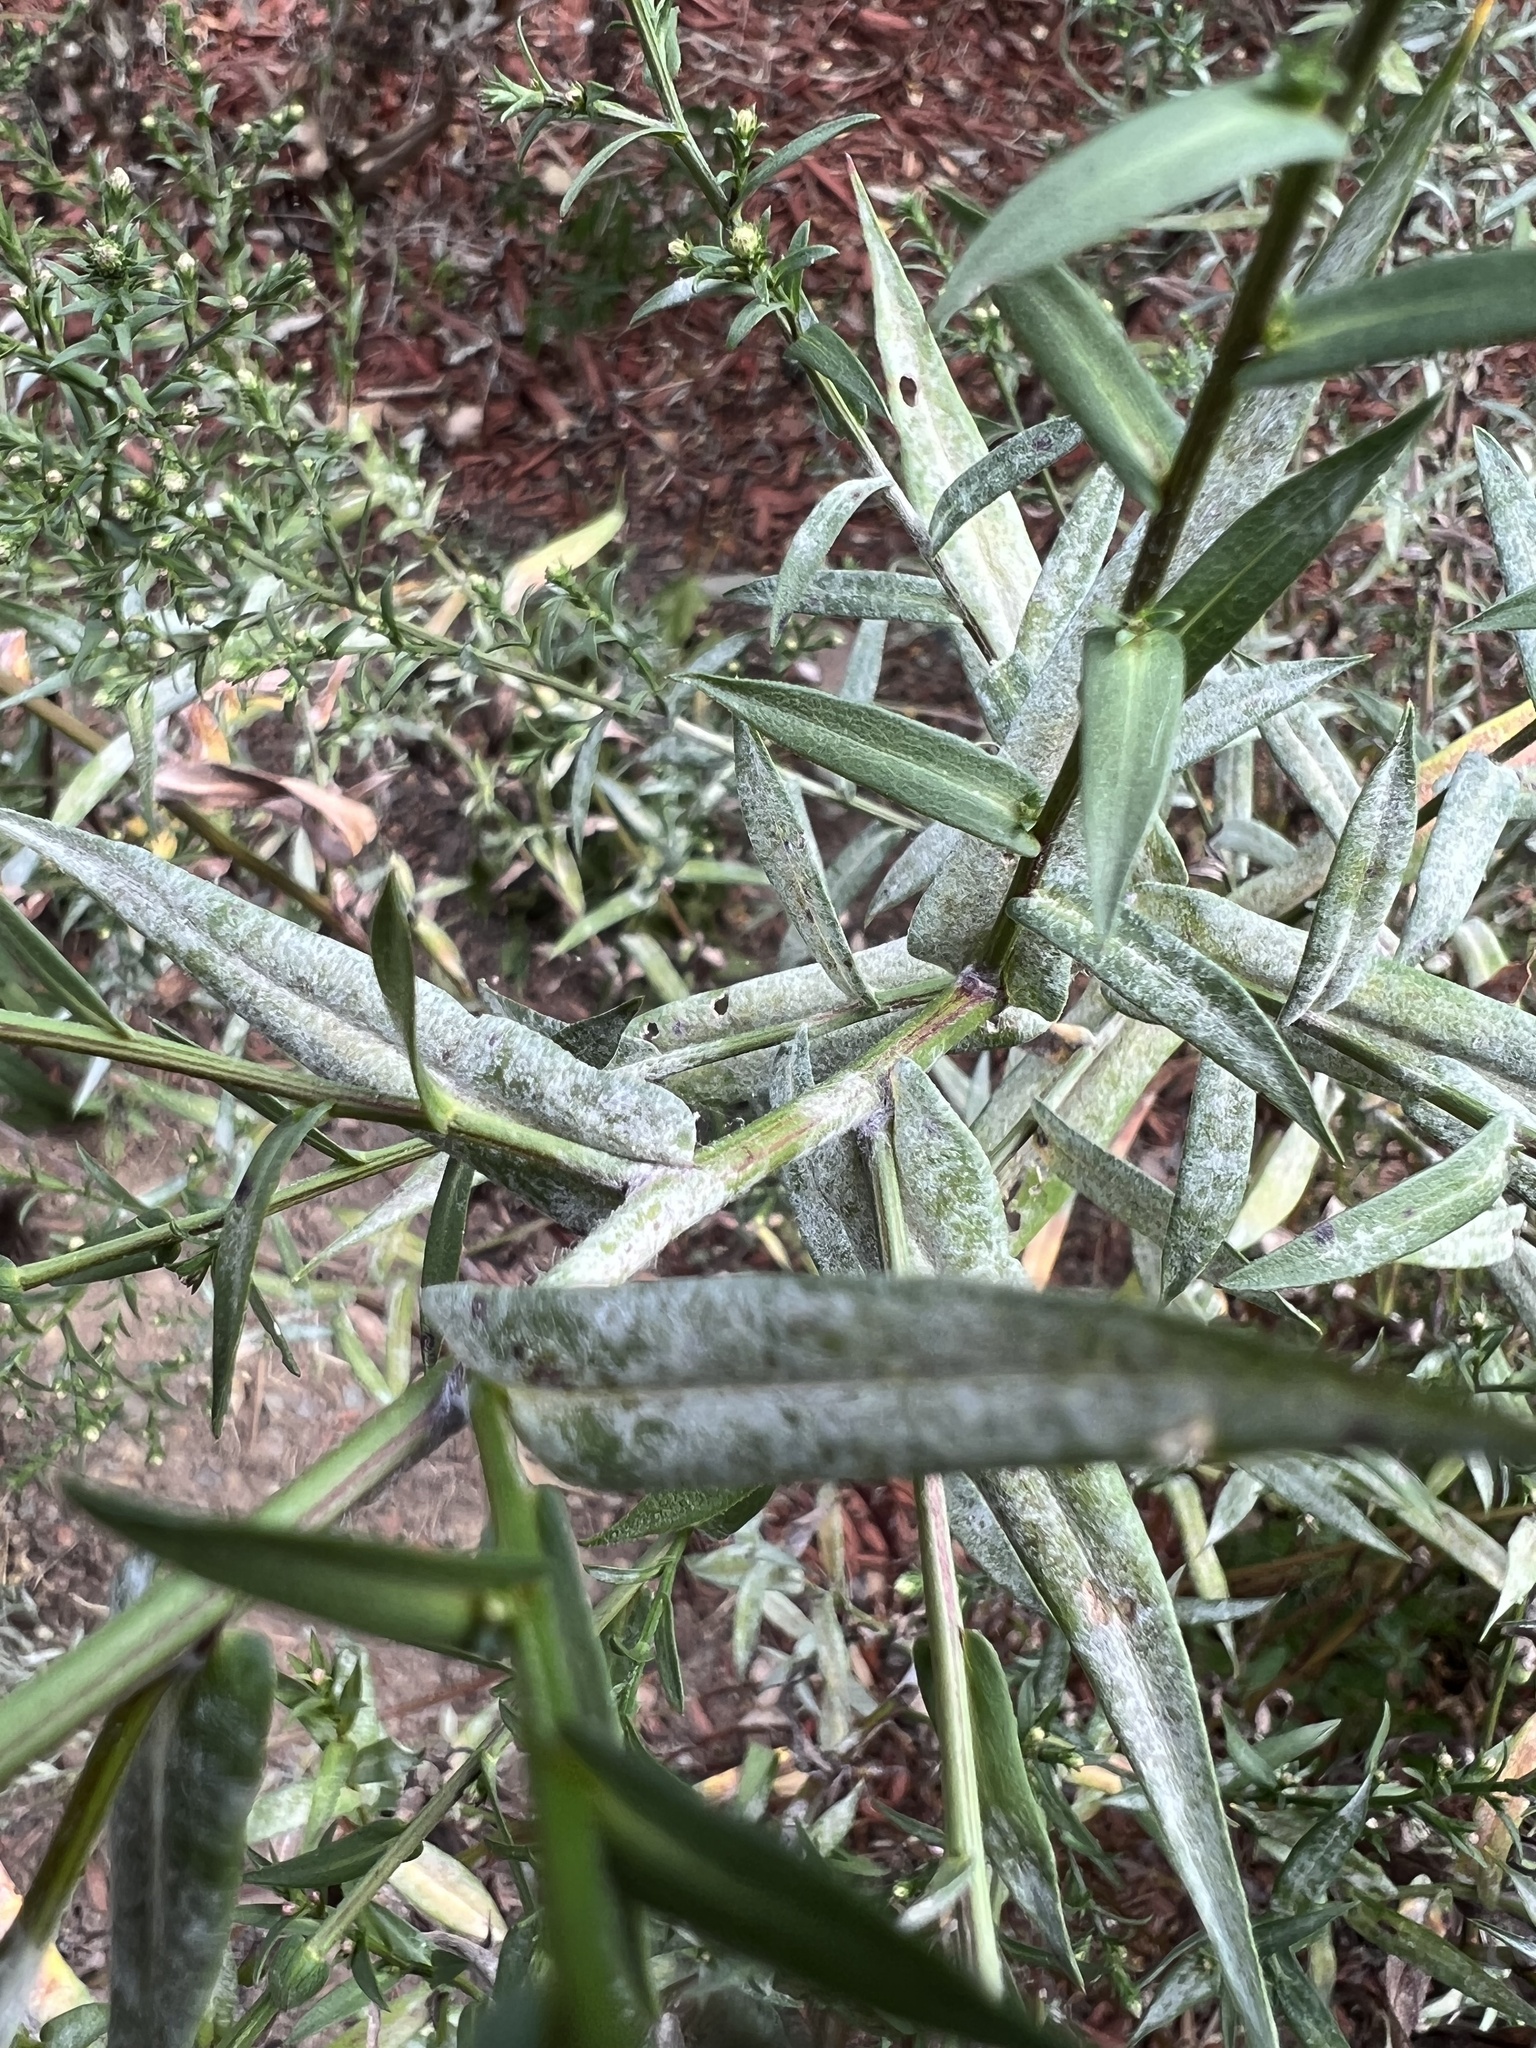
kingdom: Fungi
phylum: Ascomycota
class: Leotiomycetes
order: Helotiales
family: Erysiphaceae
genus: Golovinomyces
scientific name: Golovinomyces asterum
